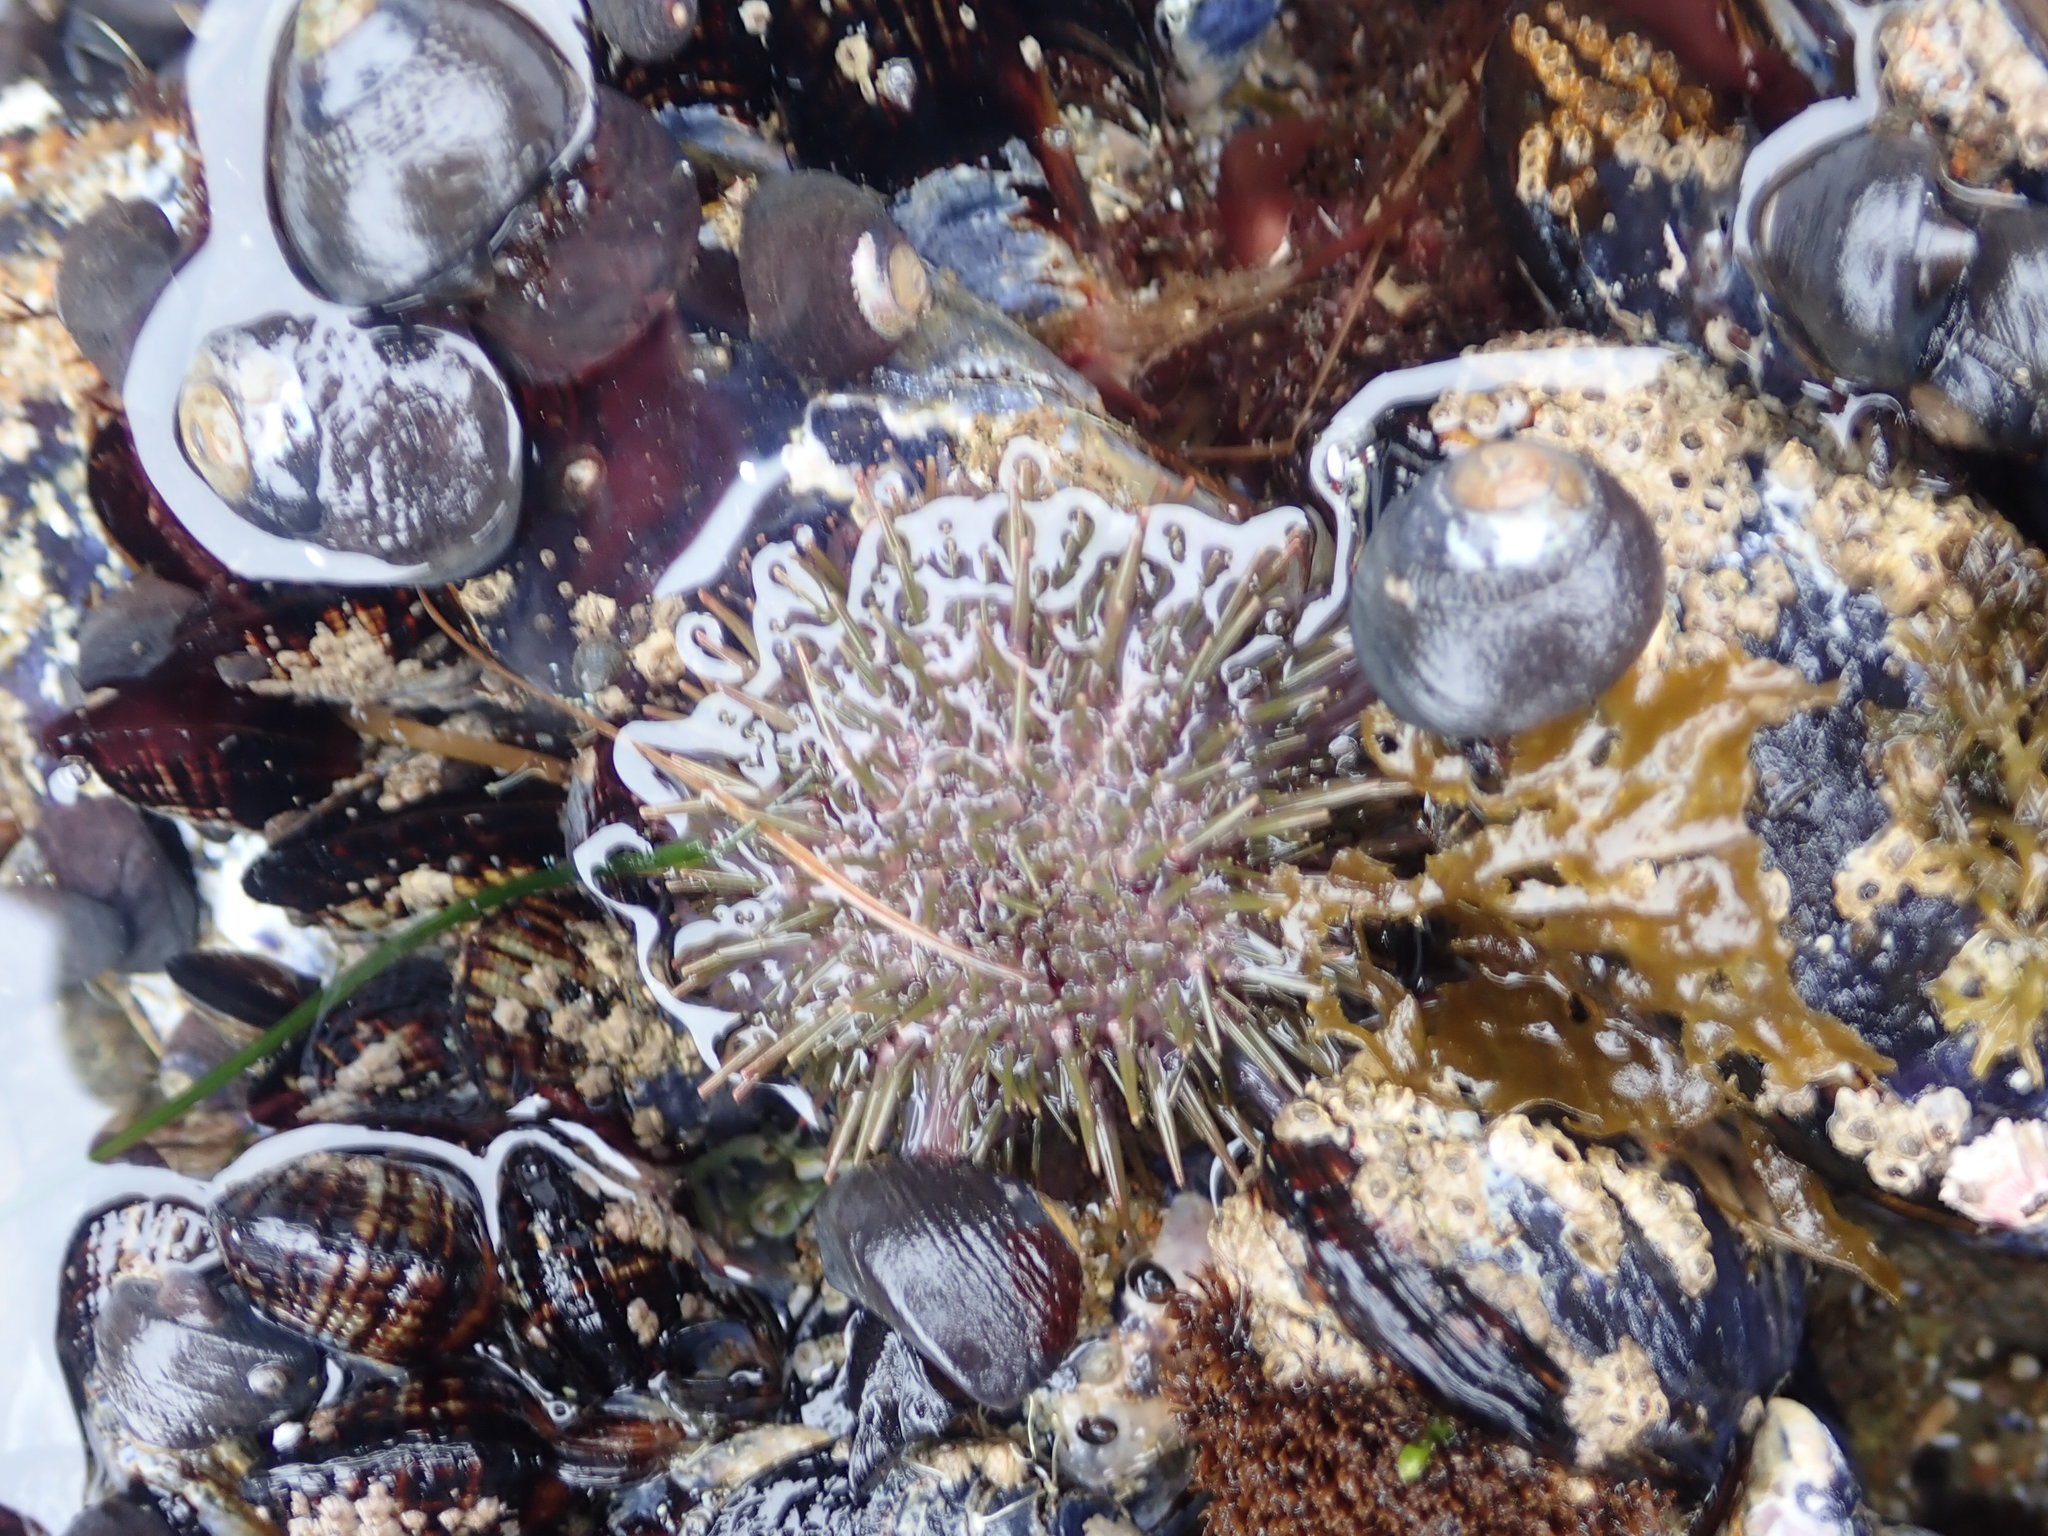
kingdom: Animalia
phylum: Echinodermata
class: Echinoidea
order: Camarodonta
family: Strongylocentrotidae
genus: Strongylocentrotus
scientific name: Strongylocentrotus purpuratus
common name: Purple sea urchin
